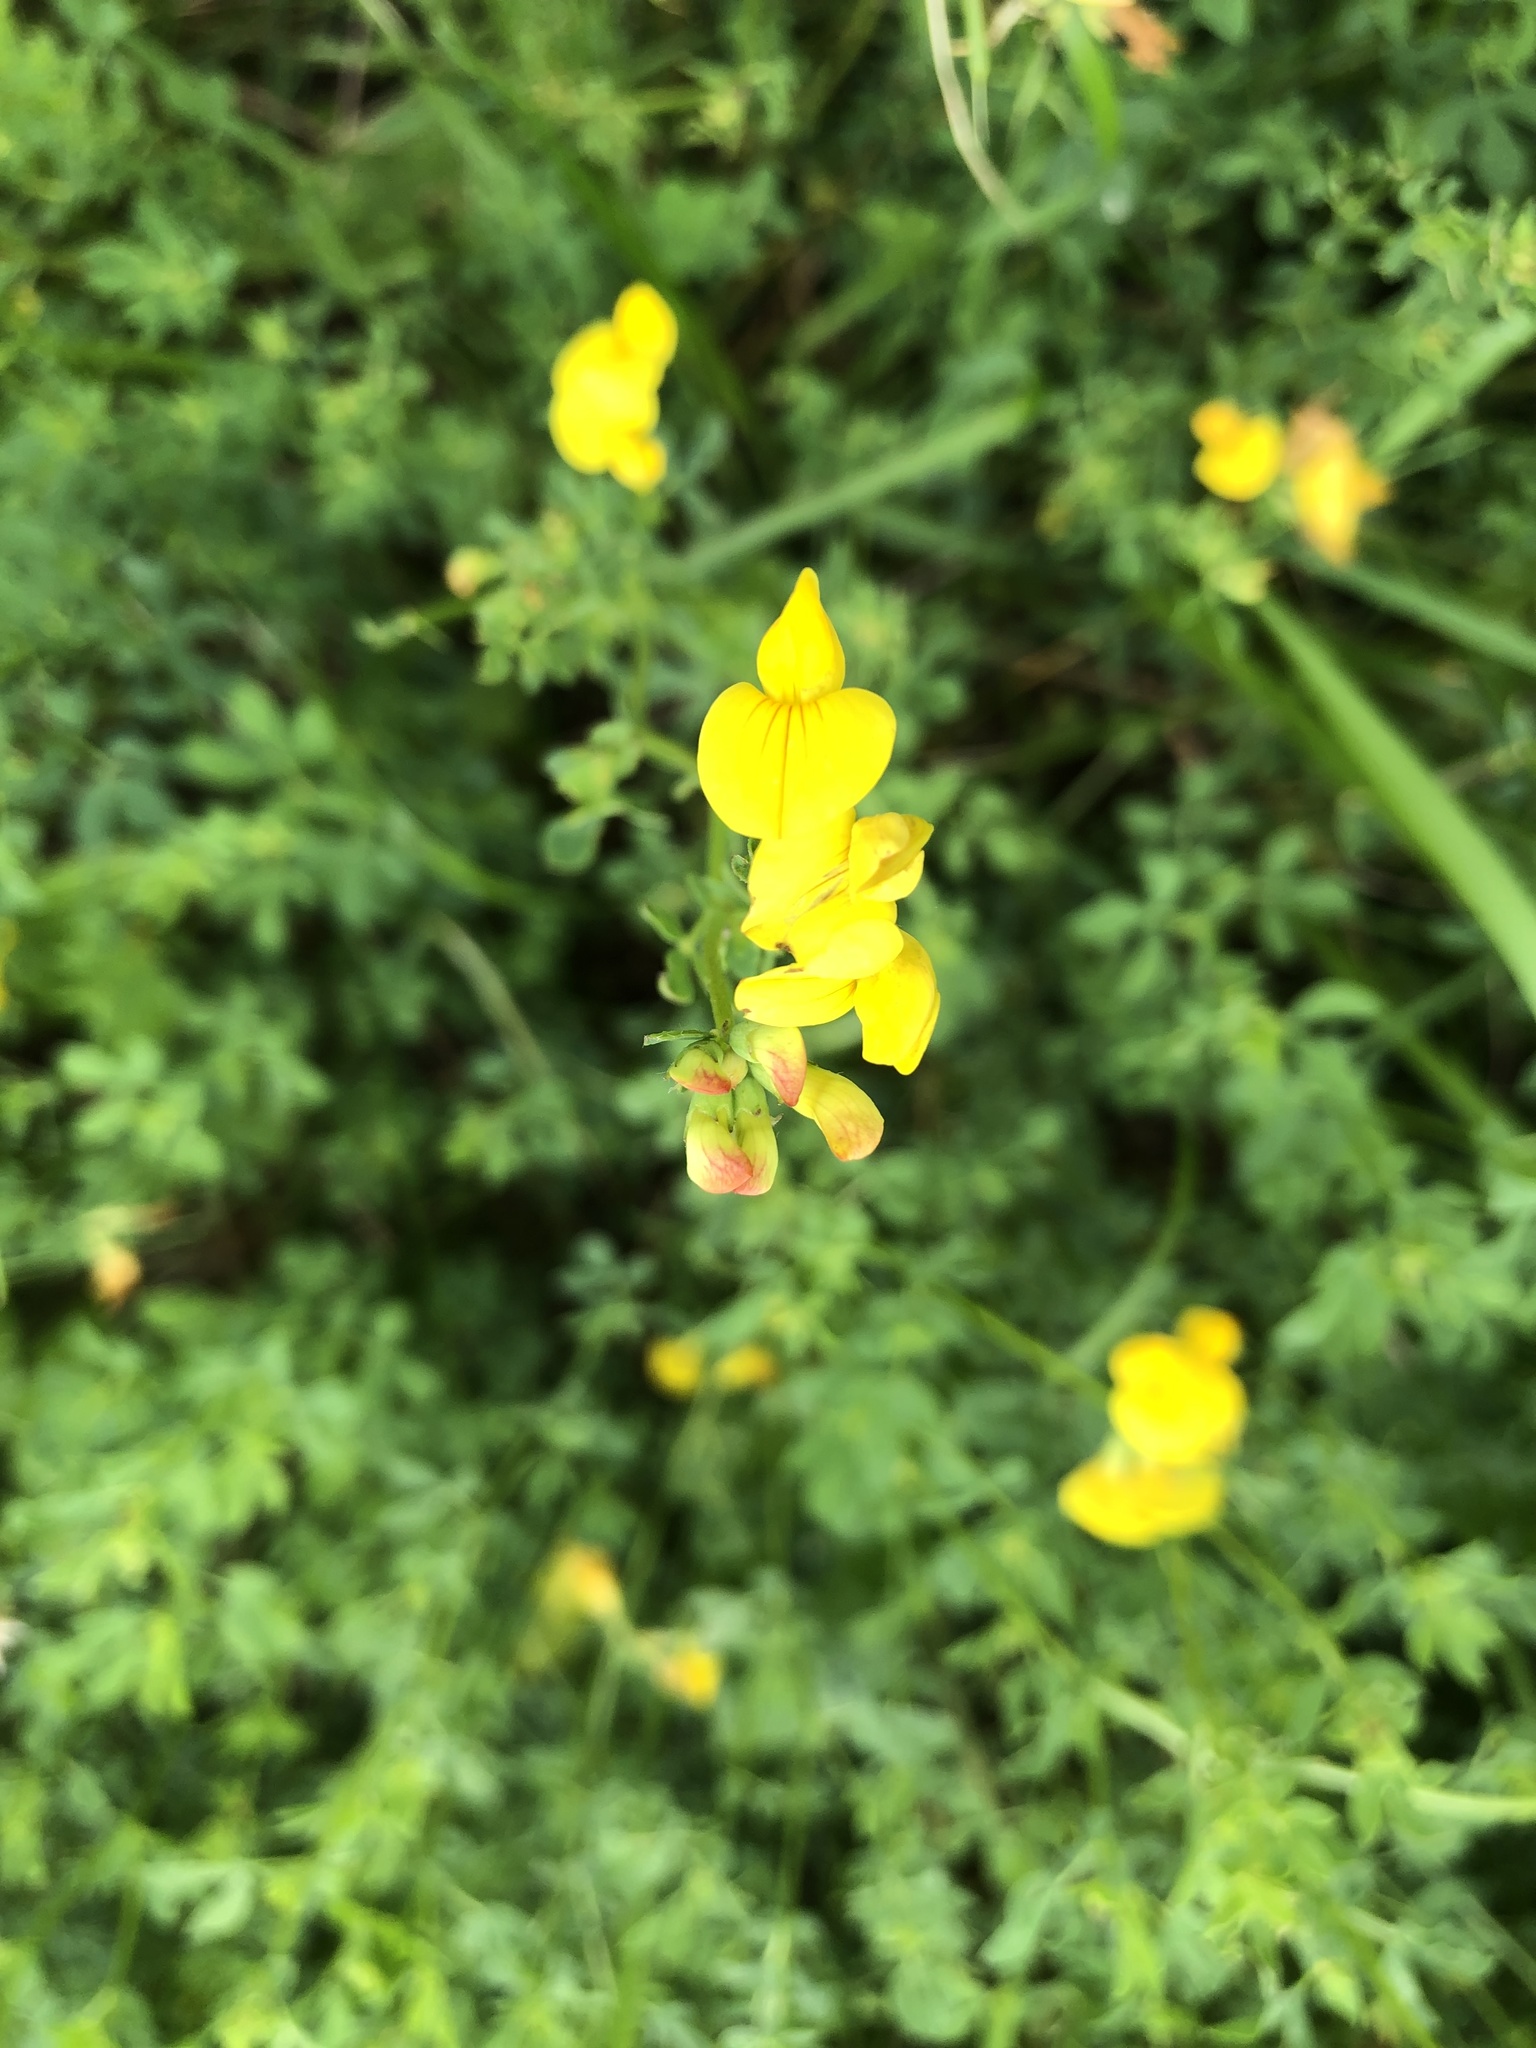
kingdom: Plantae
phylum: Tracheophyta
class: Magnoliopsida
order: Fabales
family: Fabaceae
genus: Lotus
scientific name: Lotus corniculatus
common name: Common bird's-foot-trefoil
